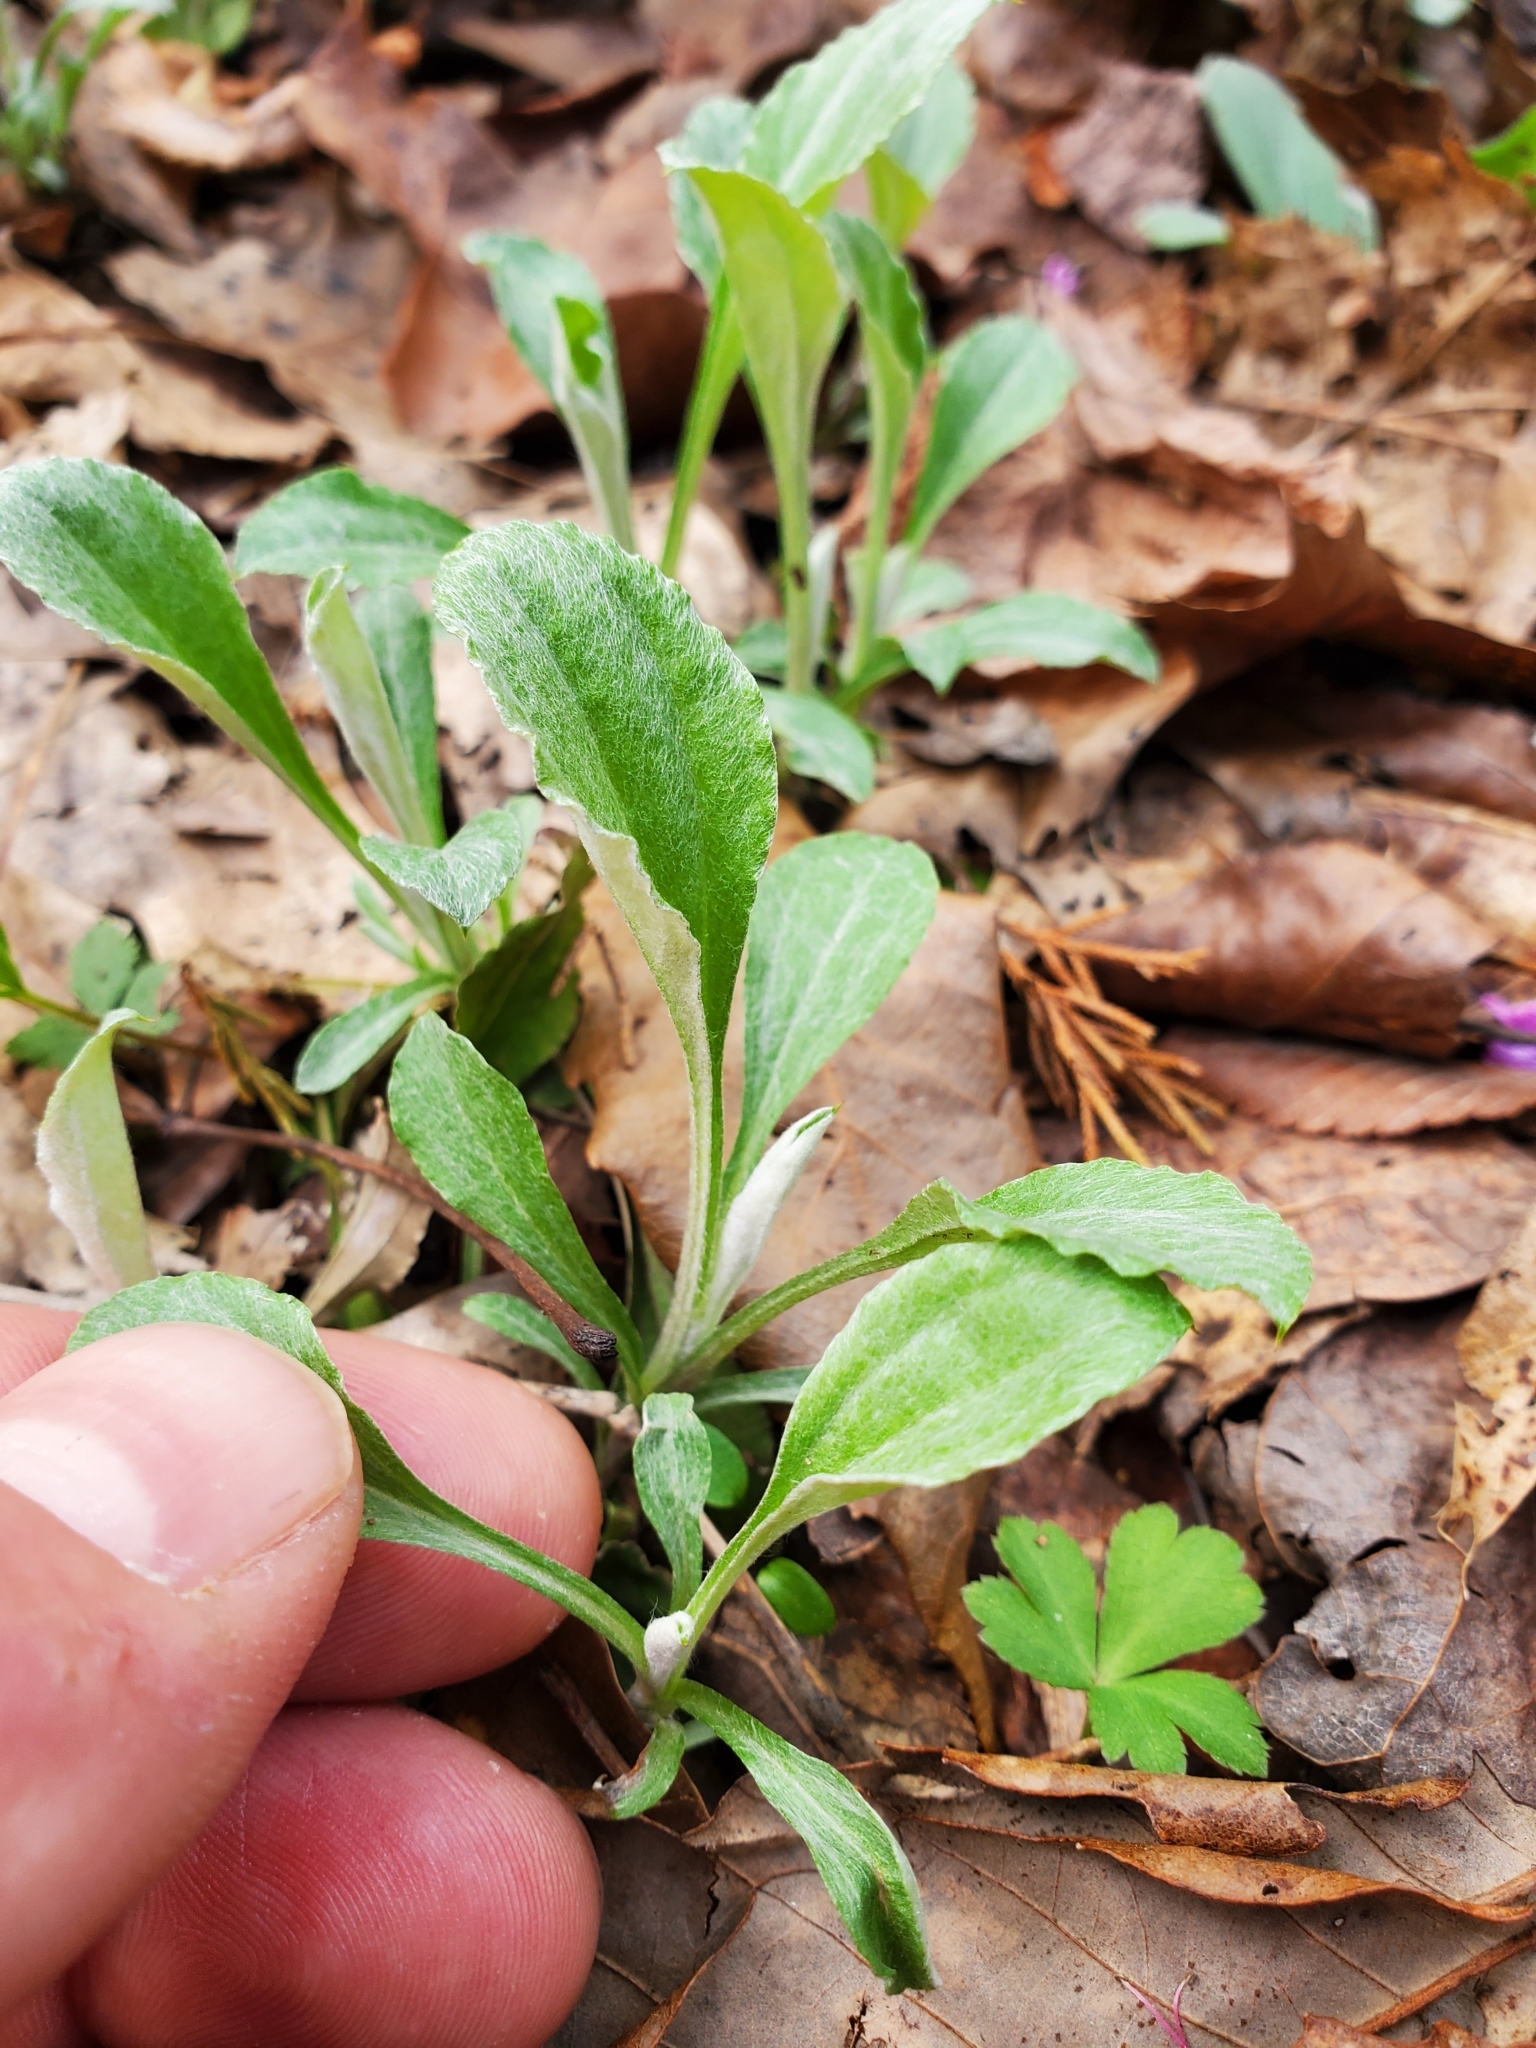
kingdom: Plantae
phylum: Tracheophyta
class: Magnoliopsida
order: Asterales
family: Asteraceae
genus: Antennaria
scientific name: Antennaria plantaginifolia
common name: Plantain-leaved pussytoes
